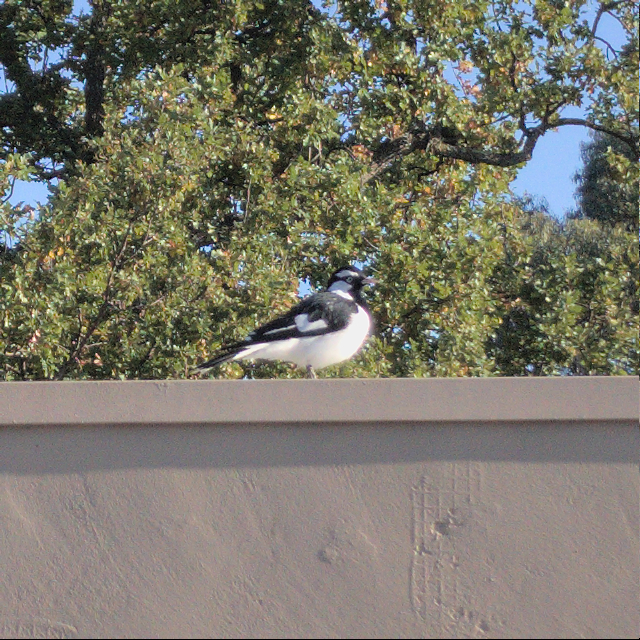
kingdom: Animalia
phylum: Chordata
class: Aves
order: Passeriformes
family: Monarchidae
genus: Grallina
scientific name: Grallina cyanoleuca
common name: Magpie-lark
